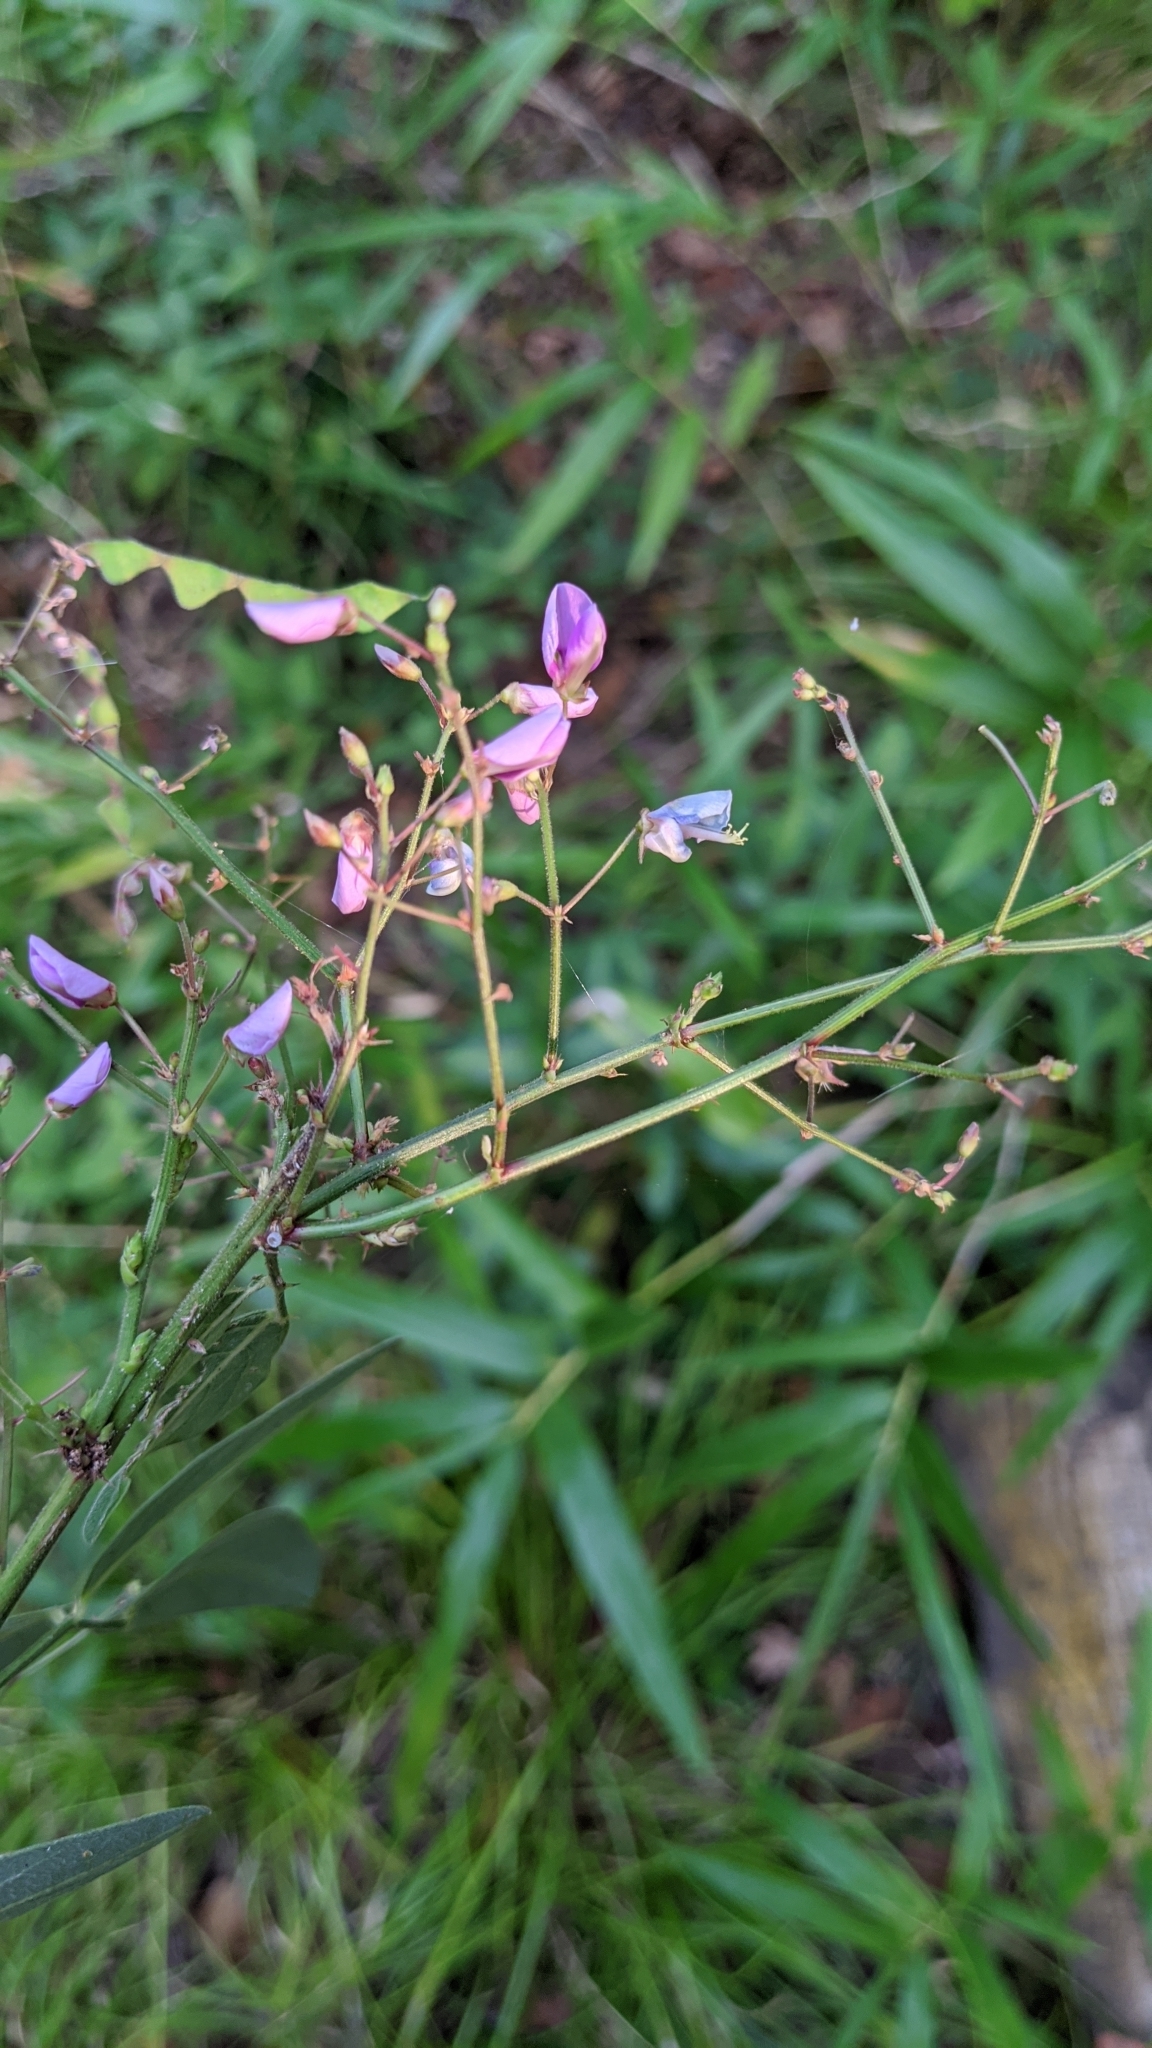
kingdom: Plantae
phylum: Tracheophyta
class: Magnoliopsida
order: Fabales
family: Fabaceae
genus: Desmodium
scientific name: Desmodium paniculatum
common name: Panicled tick-clover
